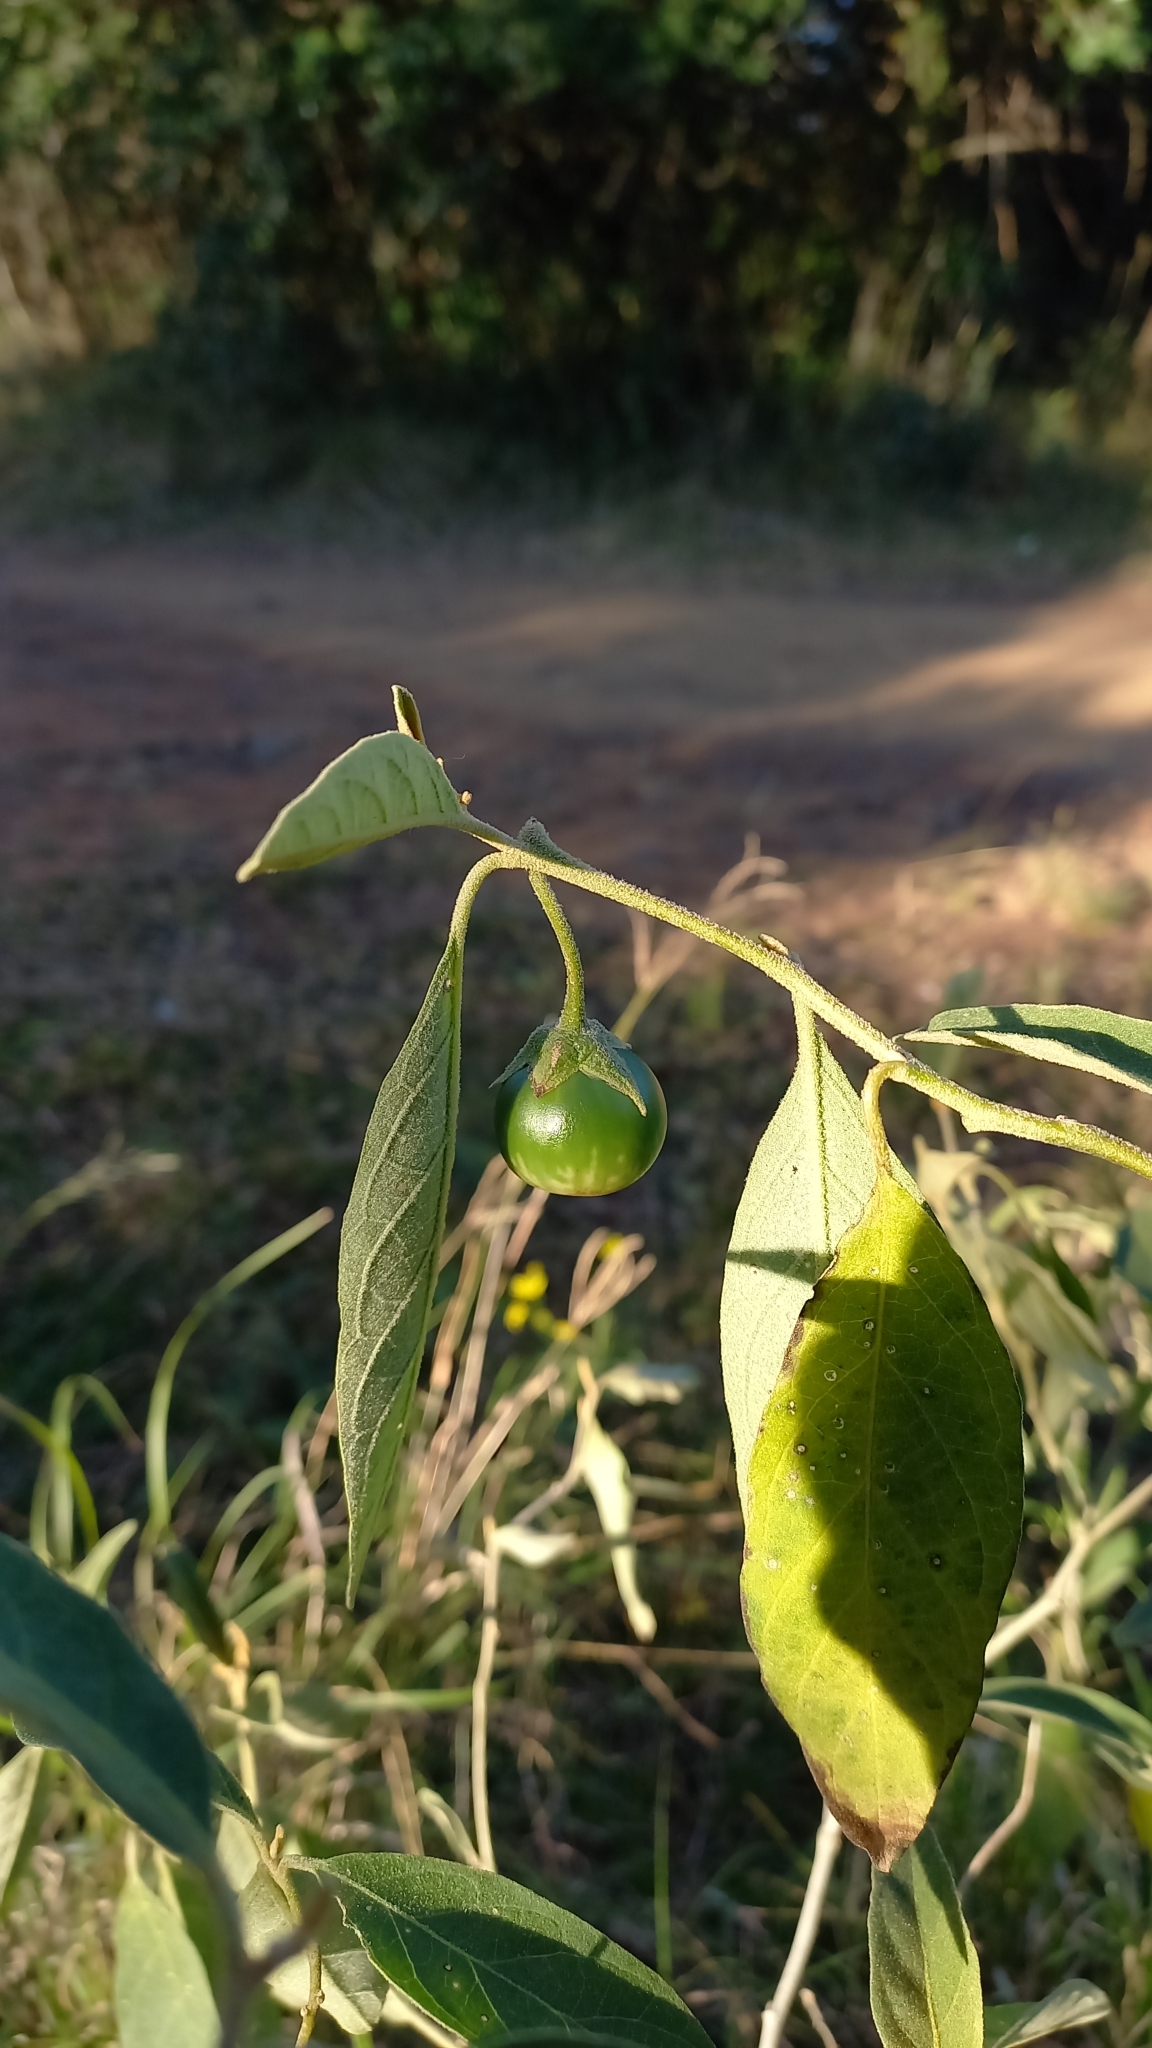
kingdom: Plantae
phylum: Tracheophyta
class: Magnoliopsida
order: Solanales
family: Solanaceae
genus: Solanum
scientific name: Solanum campylacanthum
